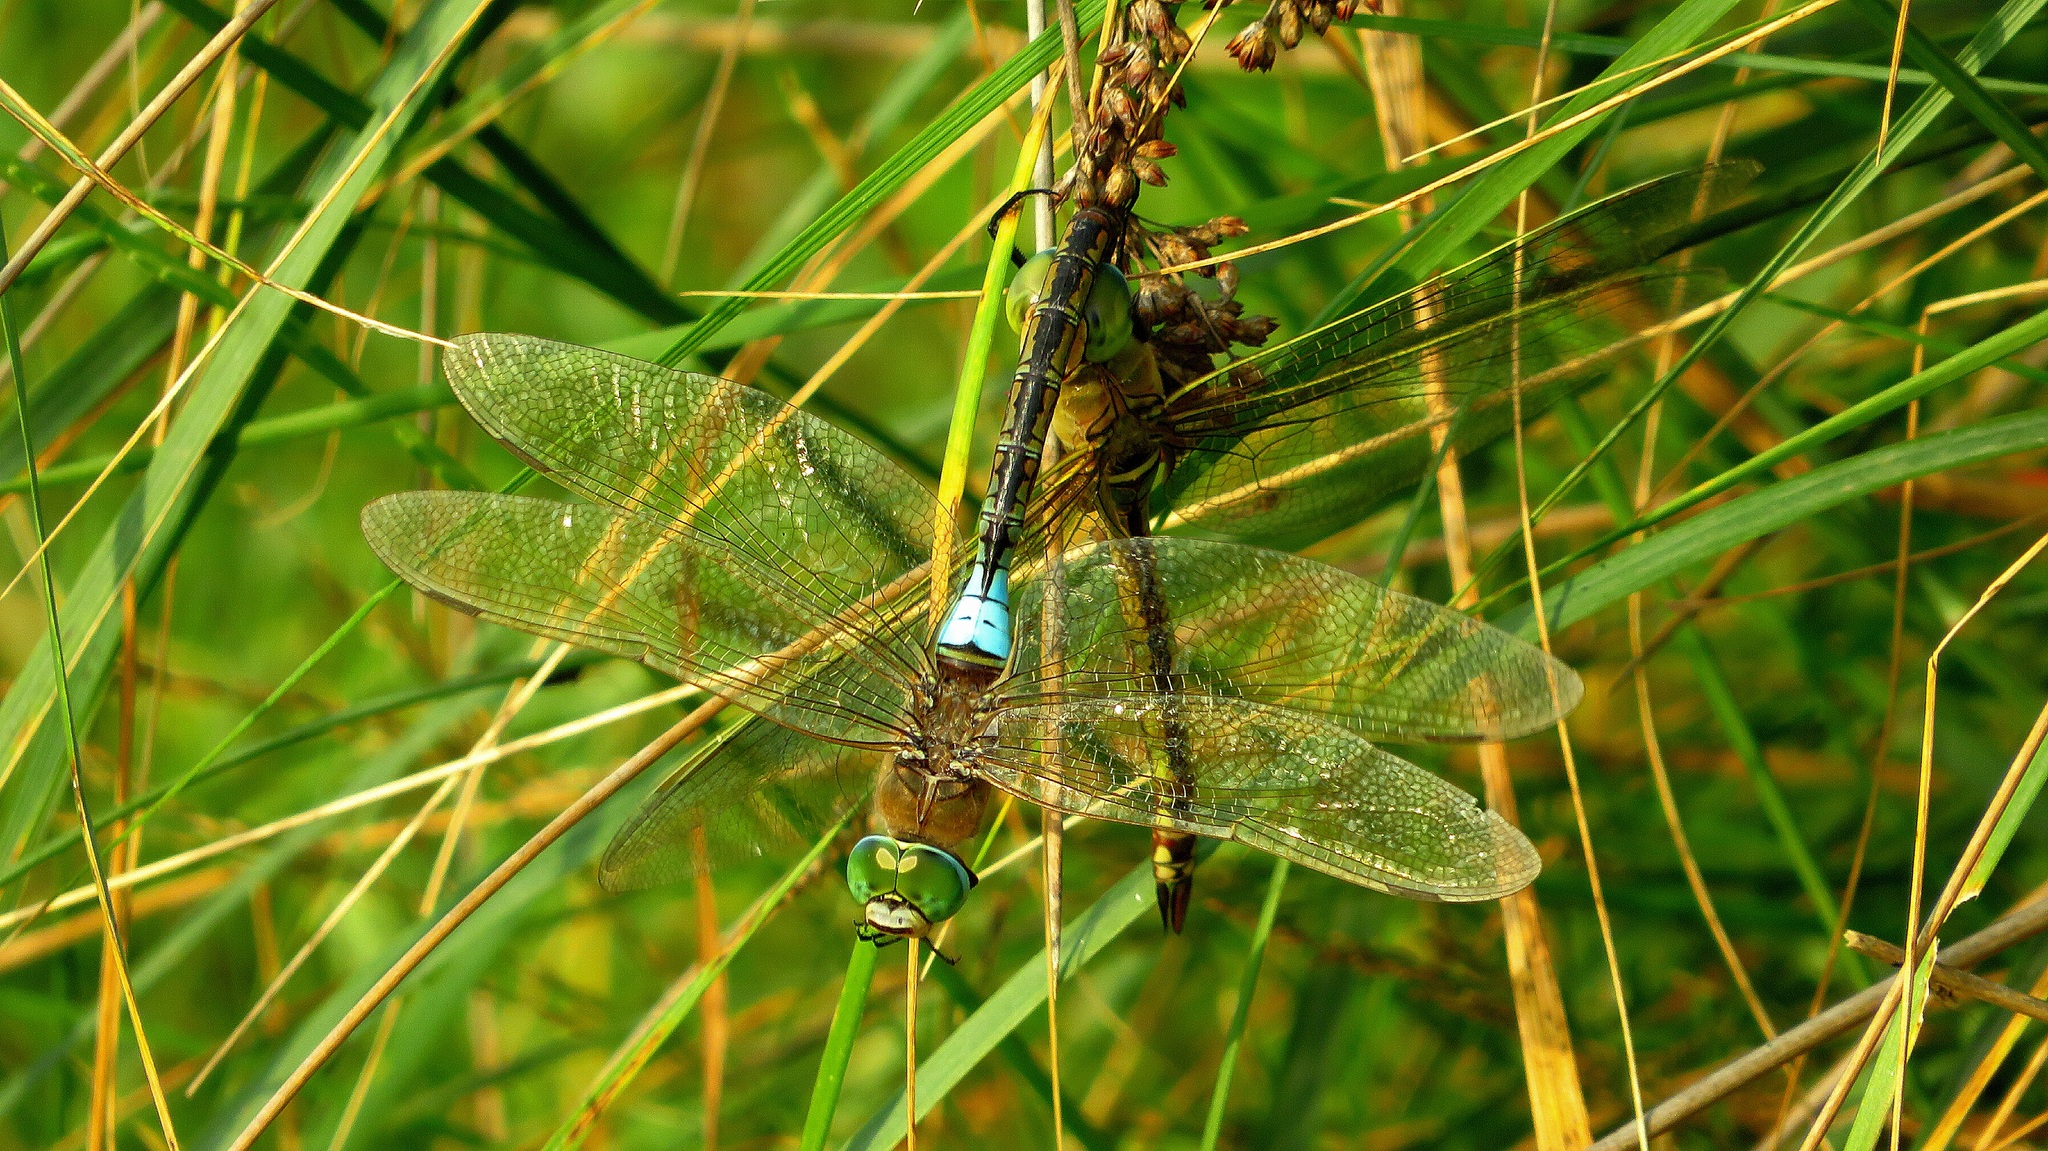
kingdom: Animalia
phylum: Arthropoda
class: Insecta
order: Odonata
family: Aeshnidae
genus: Anax
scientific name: Anax parthenope
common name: Lesser emperor
